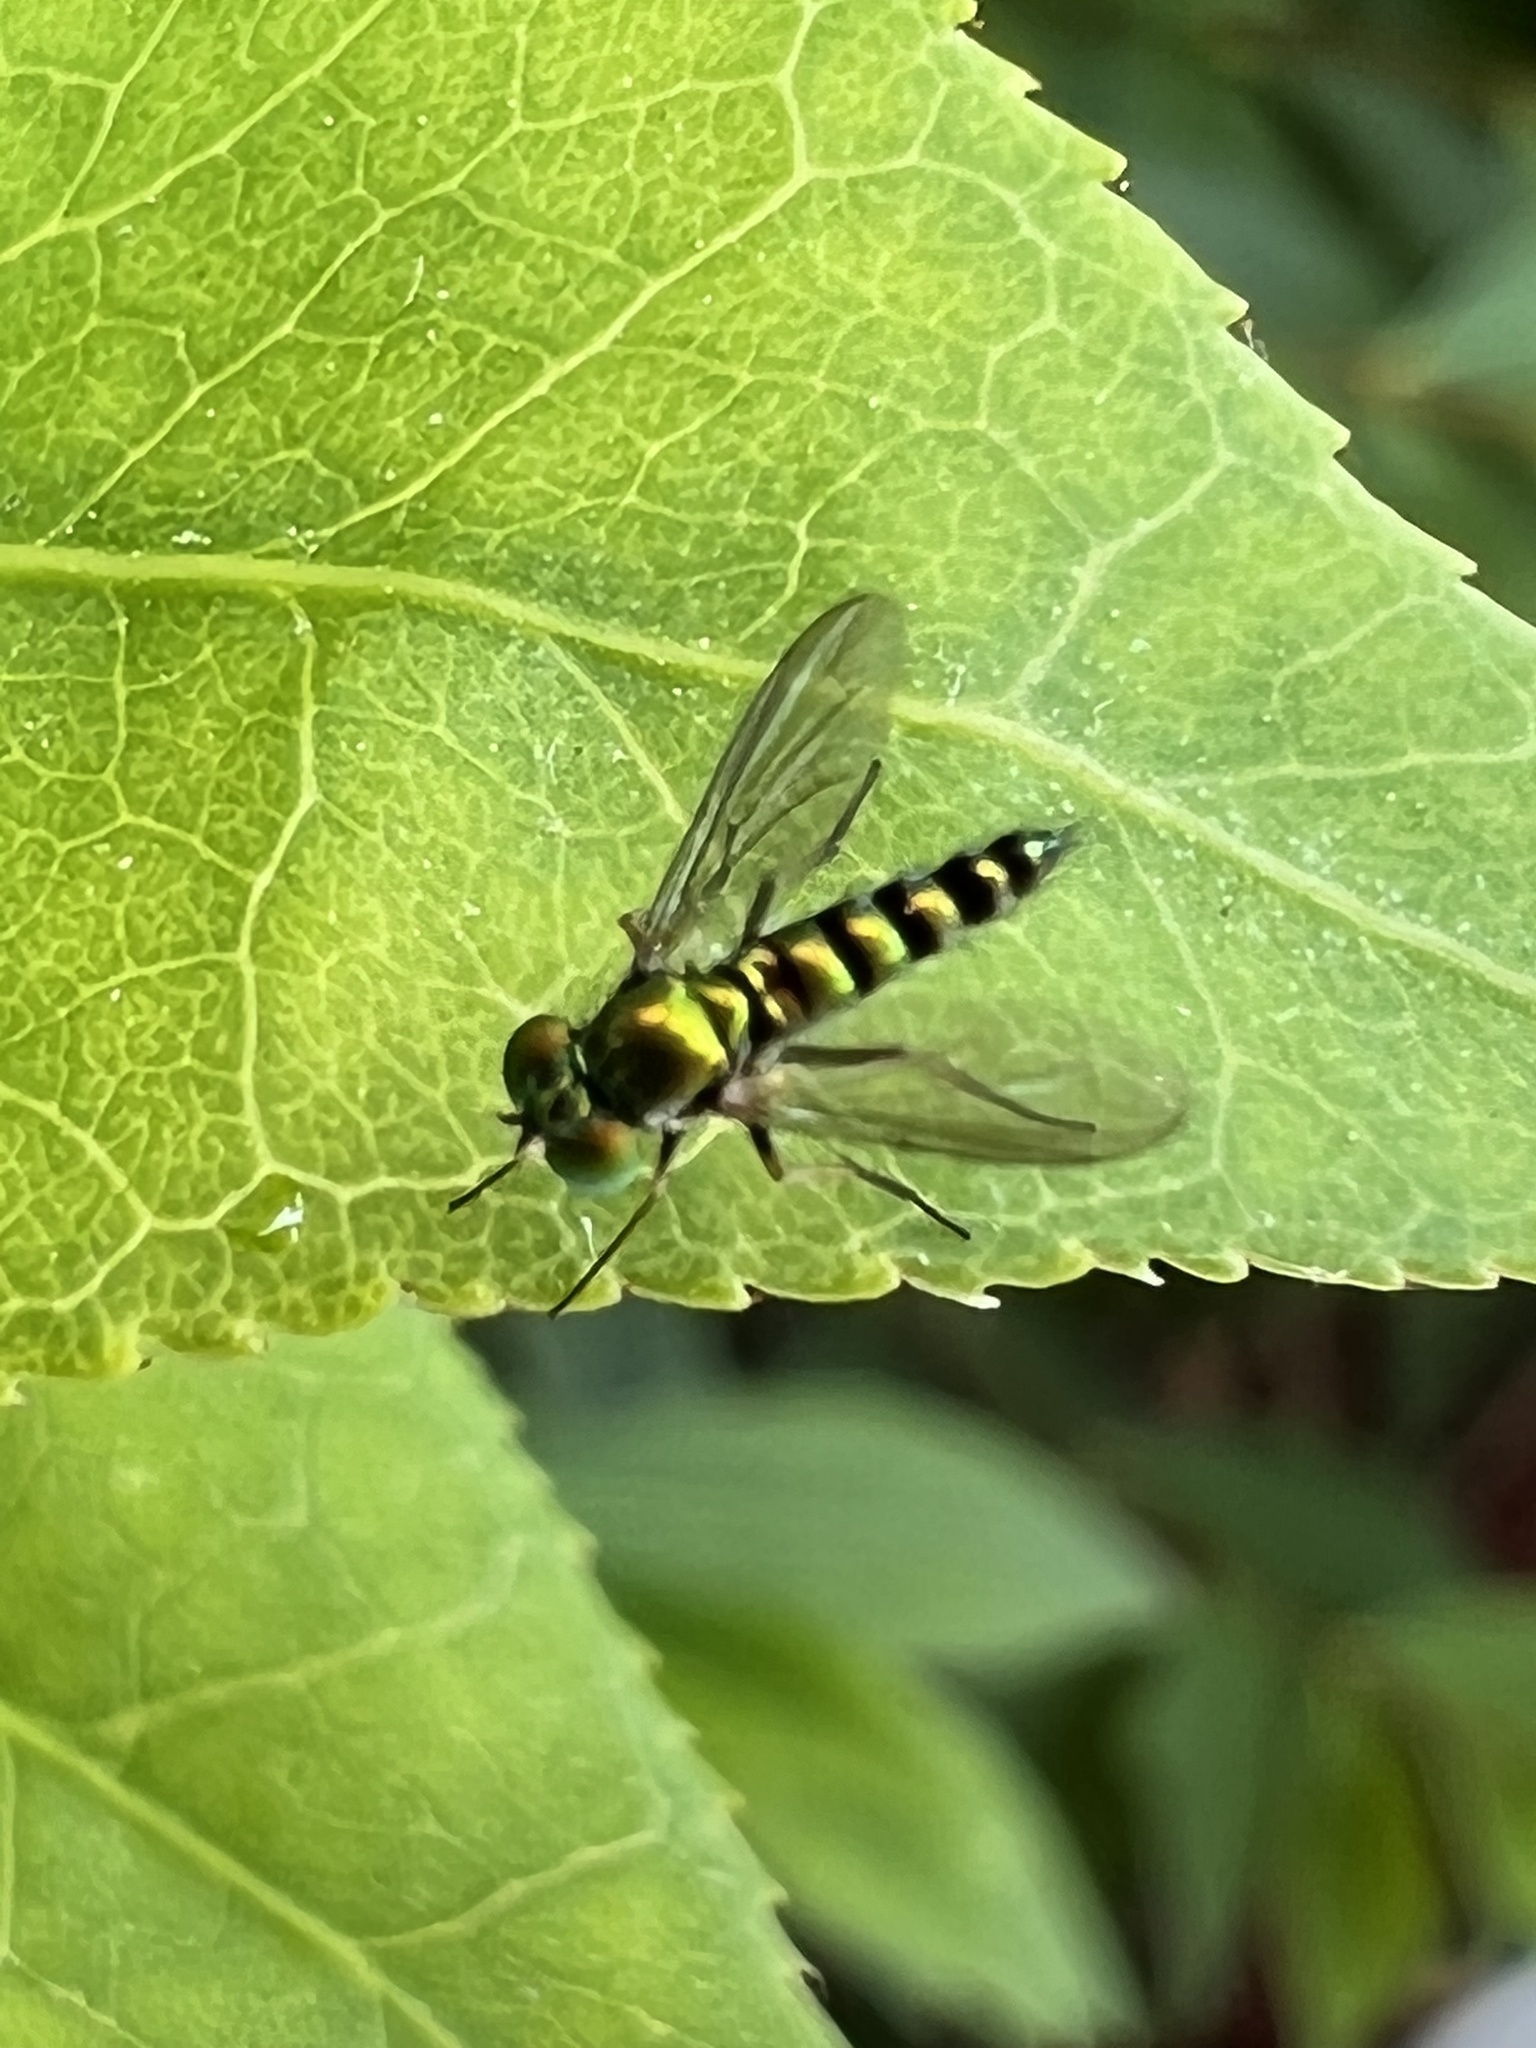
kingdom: Animalia
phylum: Arthropoda
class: Insecta
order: Diptera
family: Dolichopodidae
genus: Condylostylus
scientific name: Condylostylus caudatus
